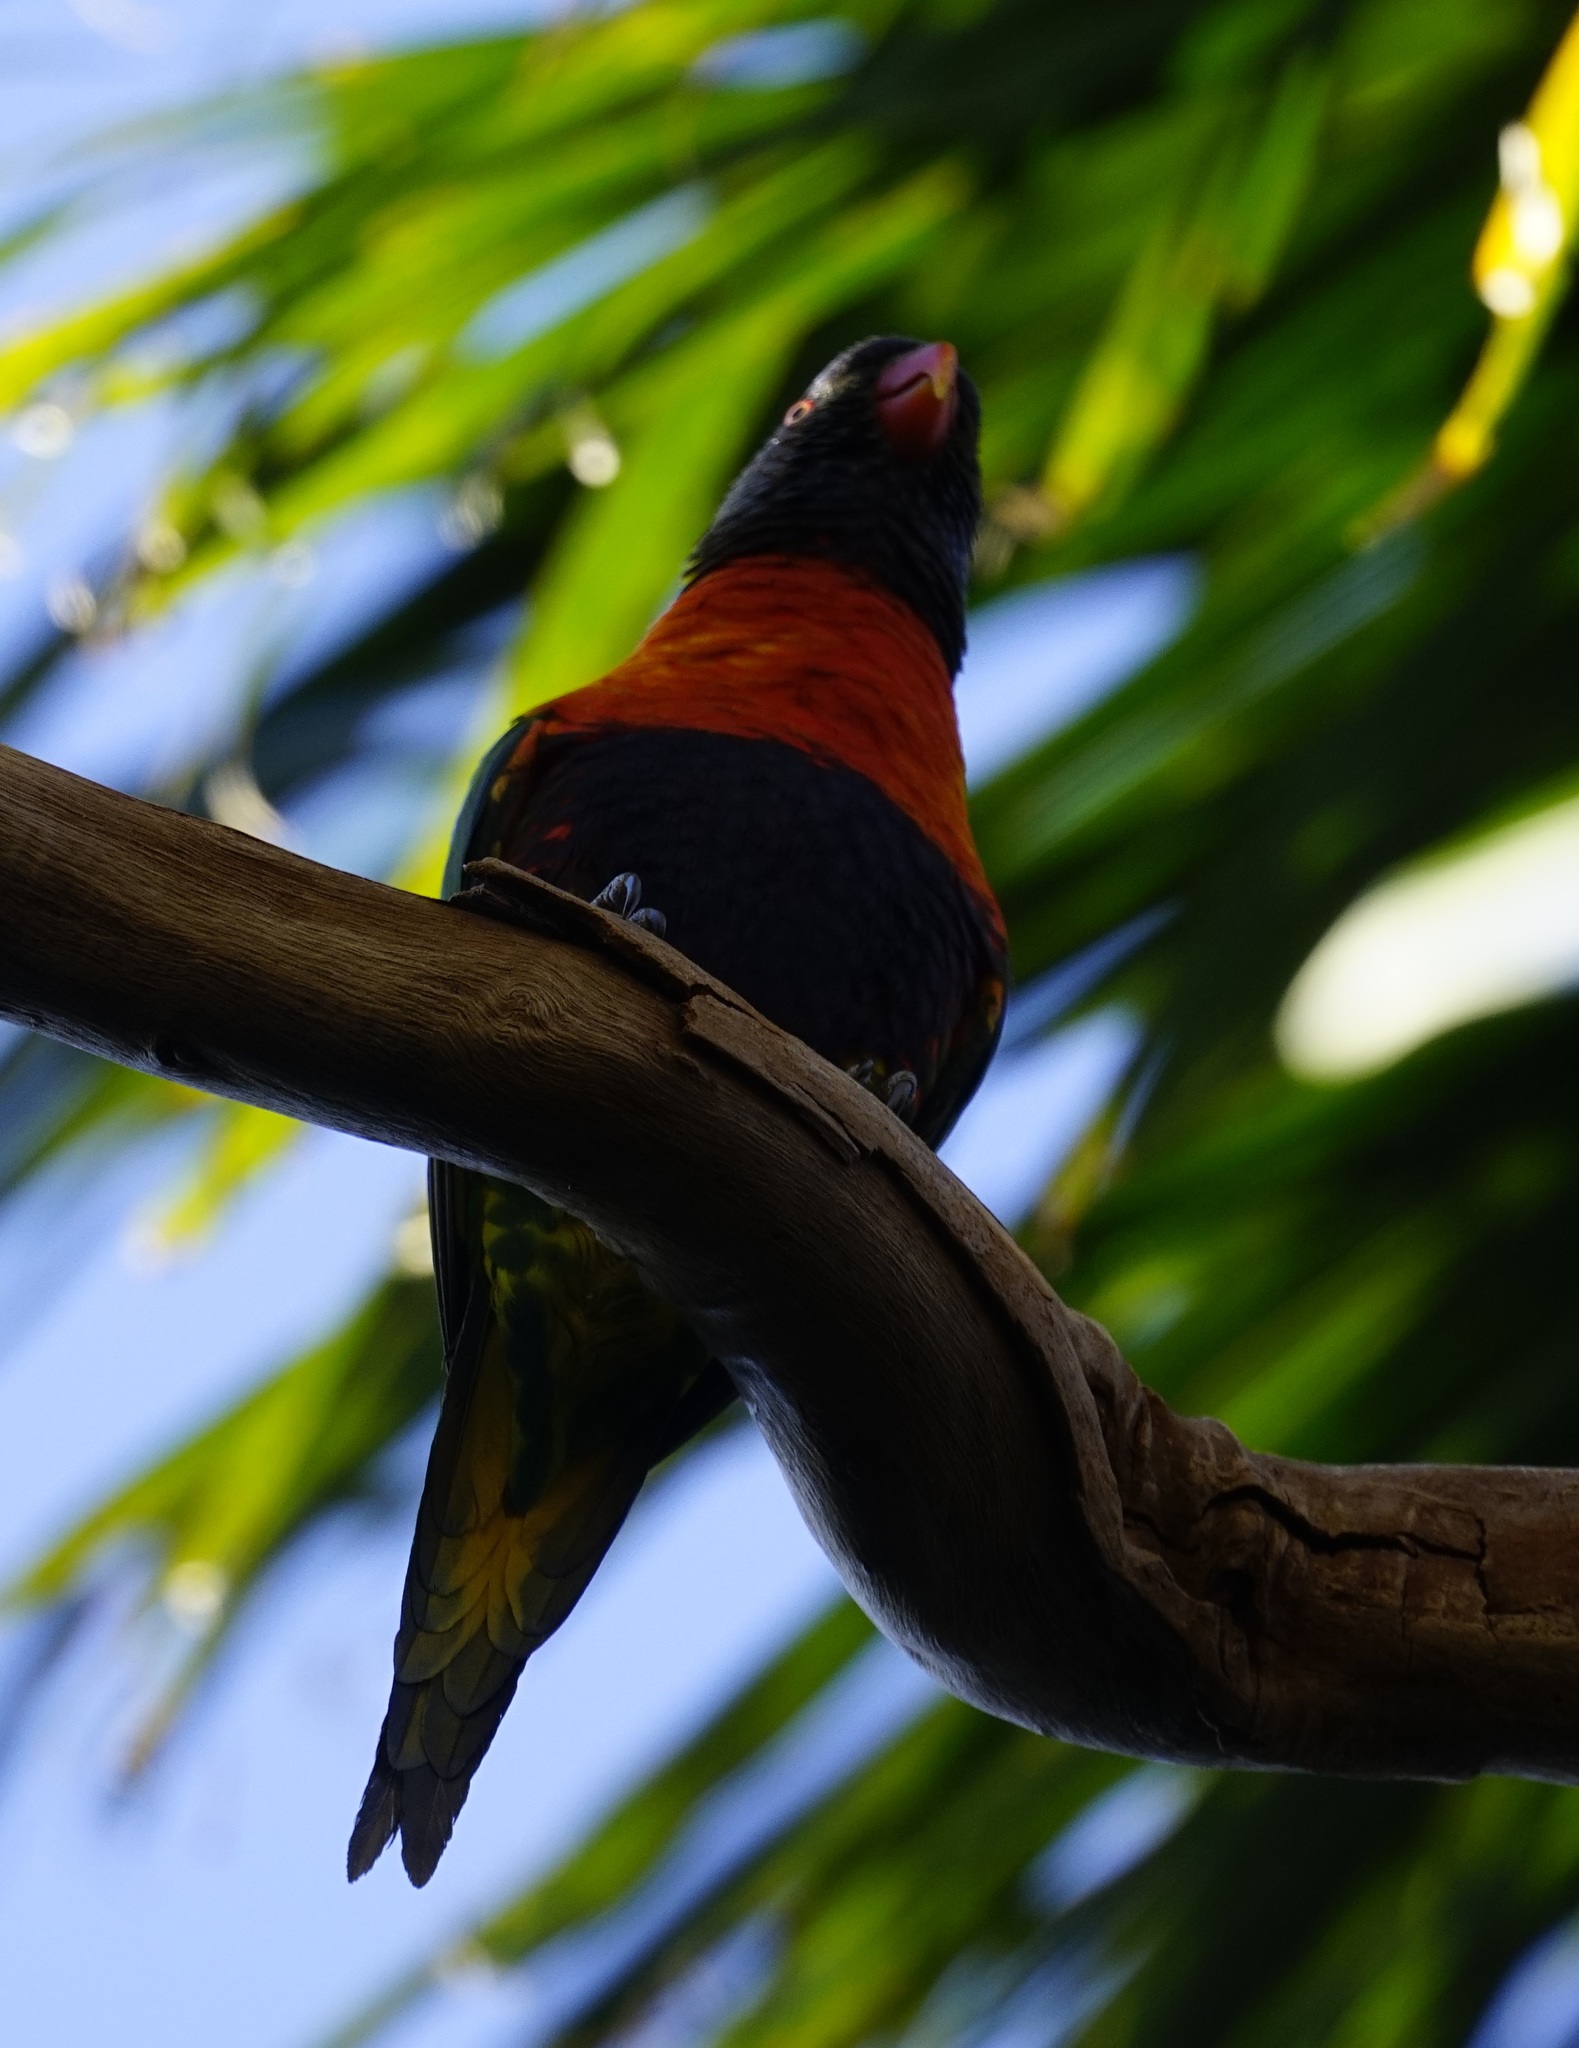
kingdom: Animalia
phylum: Chordata
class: Aves
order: Psittaciformes
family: Psittacidae
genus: Trichoglossus
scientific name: Trichoglossus haematodus
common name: Coconut lorikeet
